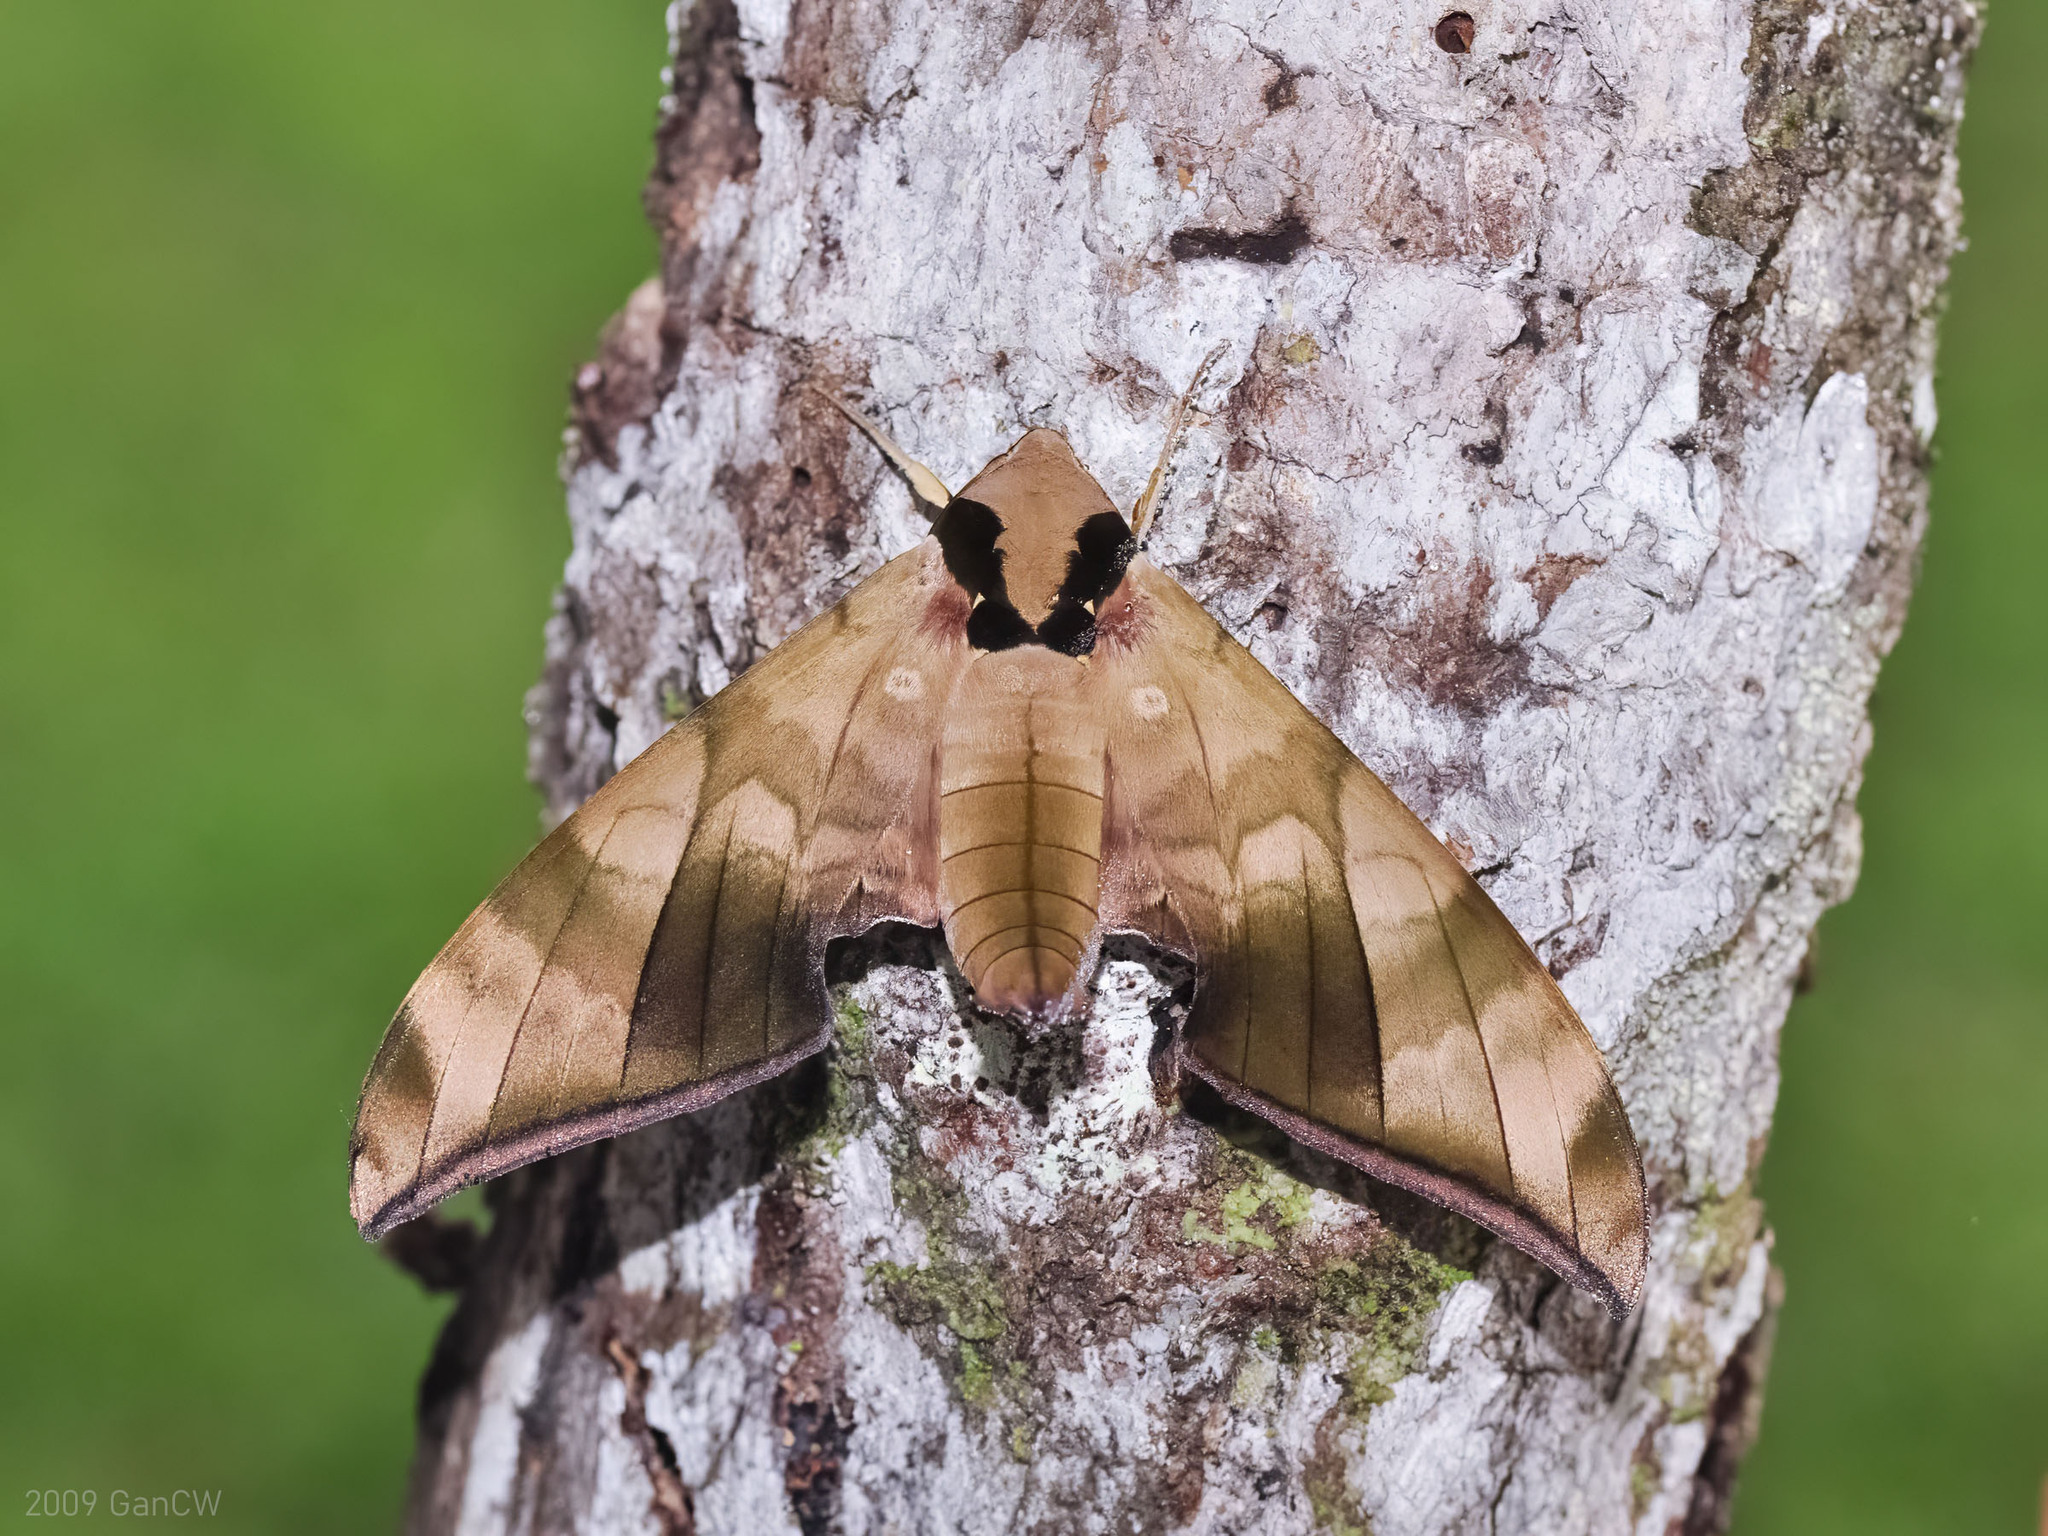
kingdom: Animalia
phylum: Arthropoda
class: Insecta
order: Lepidoptera
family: Sphingidae
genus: Ambulyx
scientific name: Ambulyx tattina
